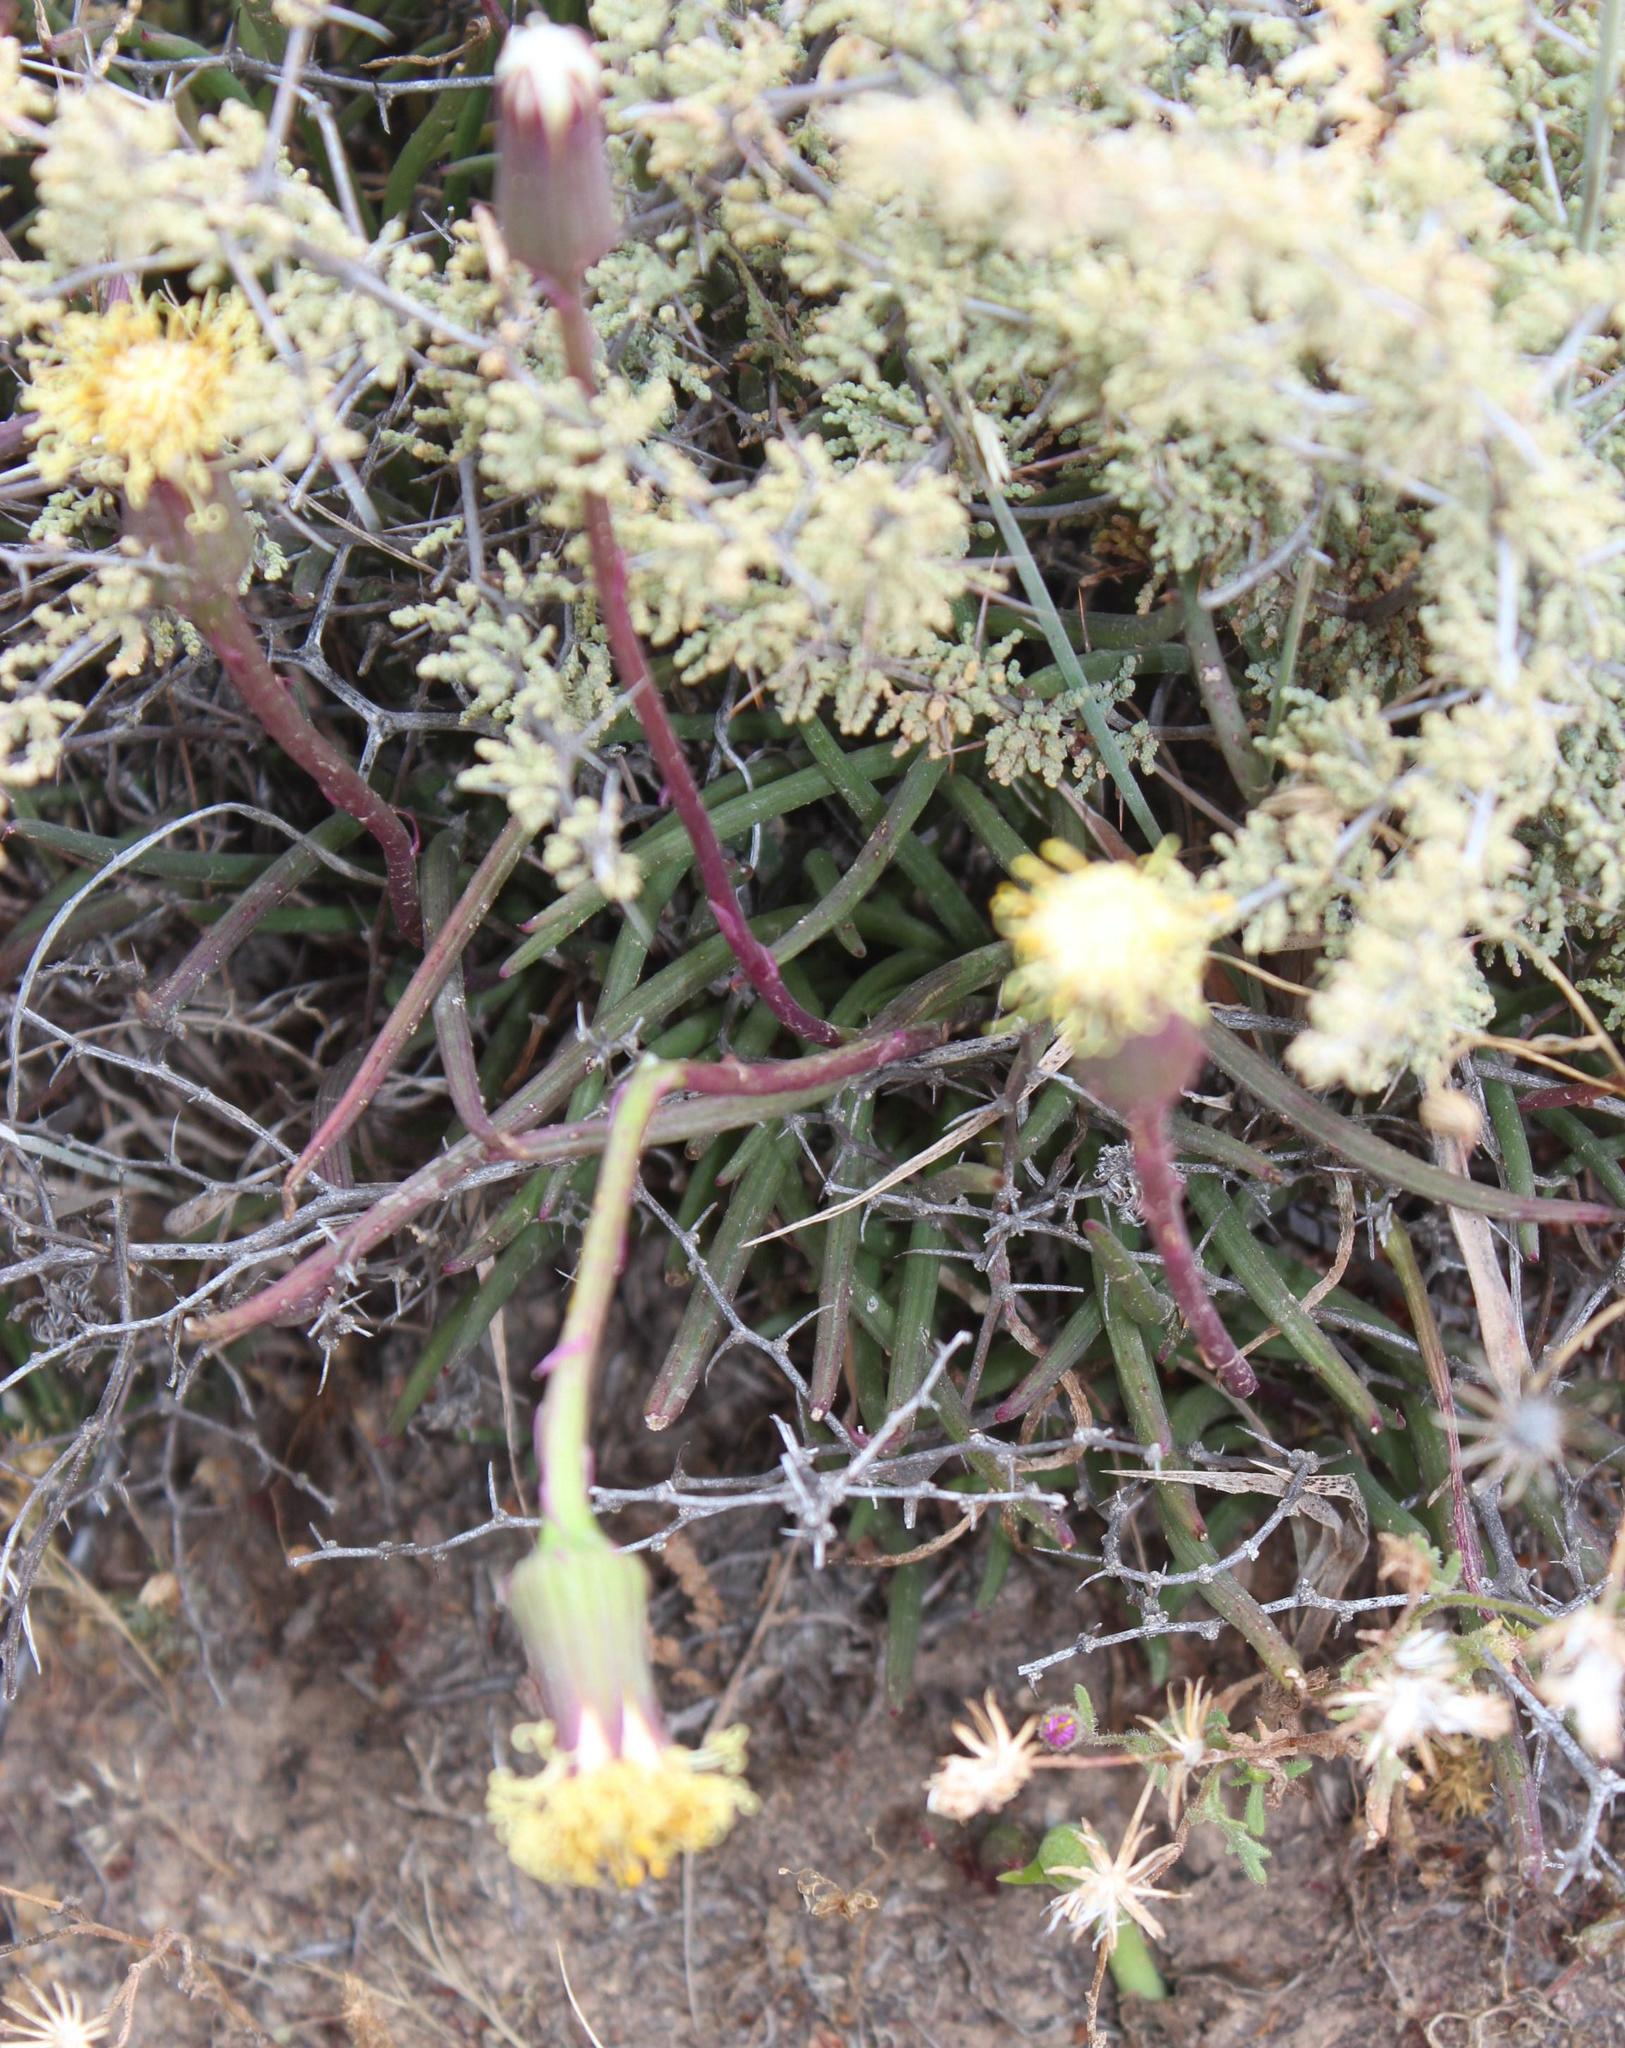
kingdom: Plantae
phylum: Tracheophyta
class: Liliopsida
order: Asparagales
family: Asparagaceae
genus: Asparagus
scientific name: Asparagus capensis
